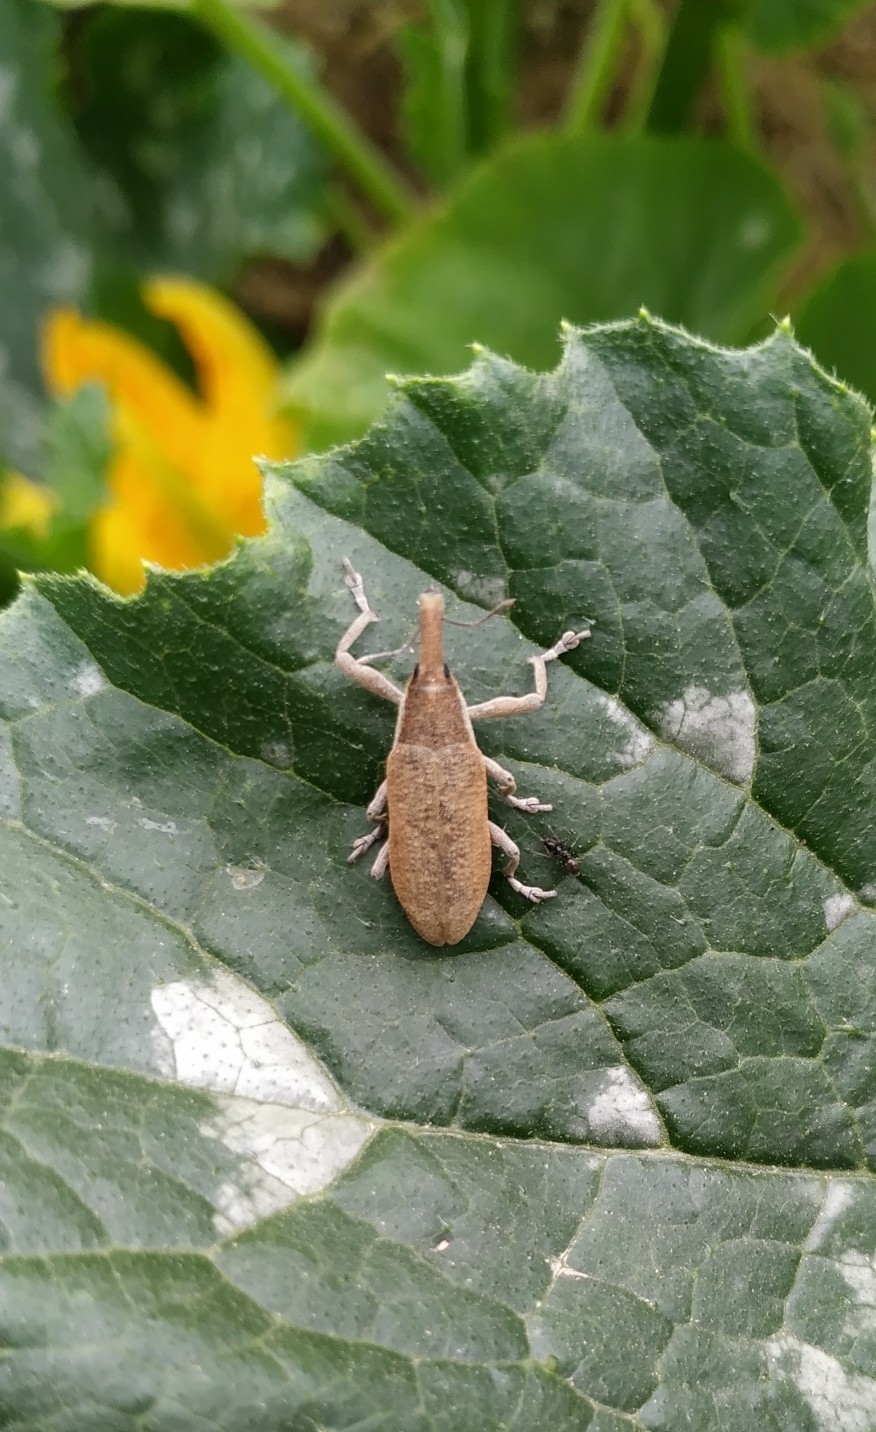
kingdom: Animalia
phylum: Arthropoda
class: Insecta
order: Coleoptera
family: Curculionidae
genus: Lixus
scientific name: Lixus pulverulentus
